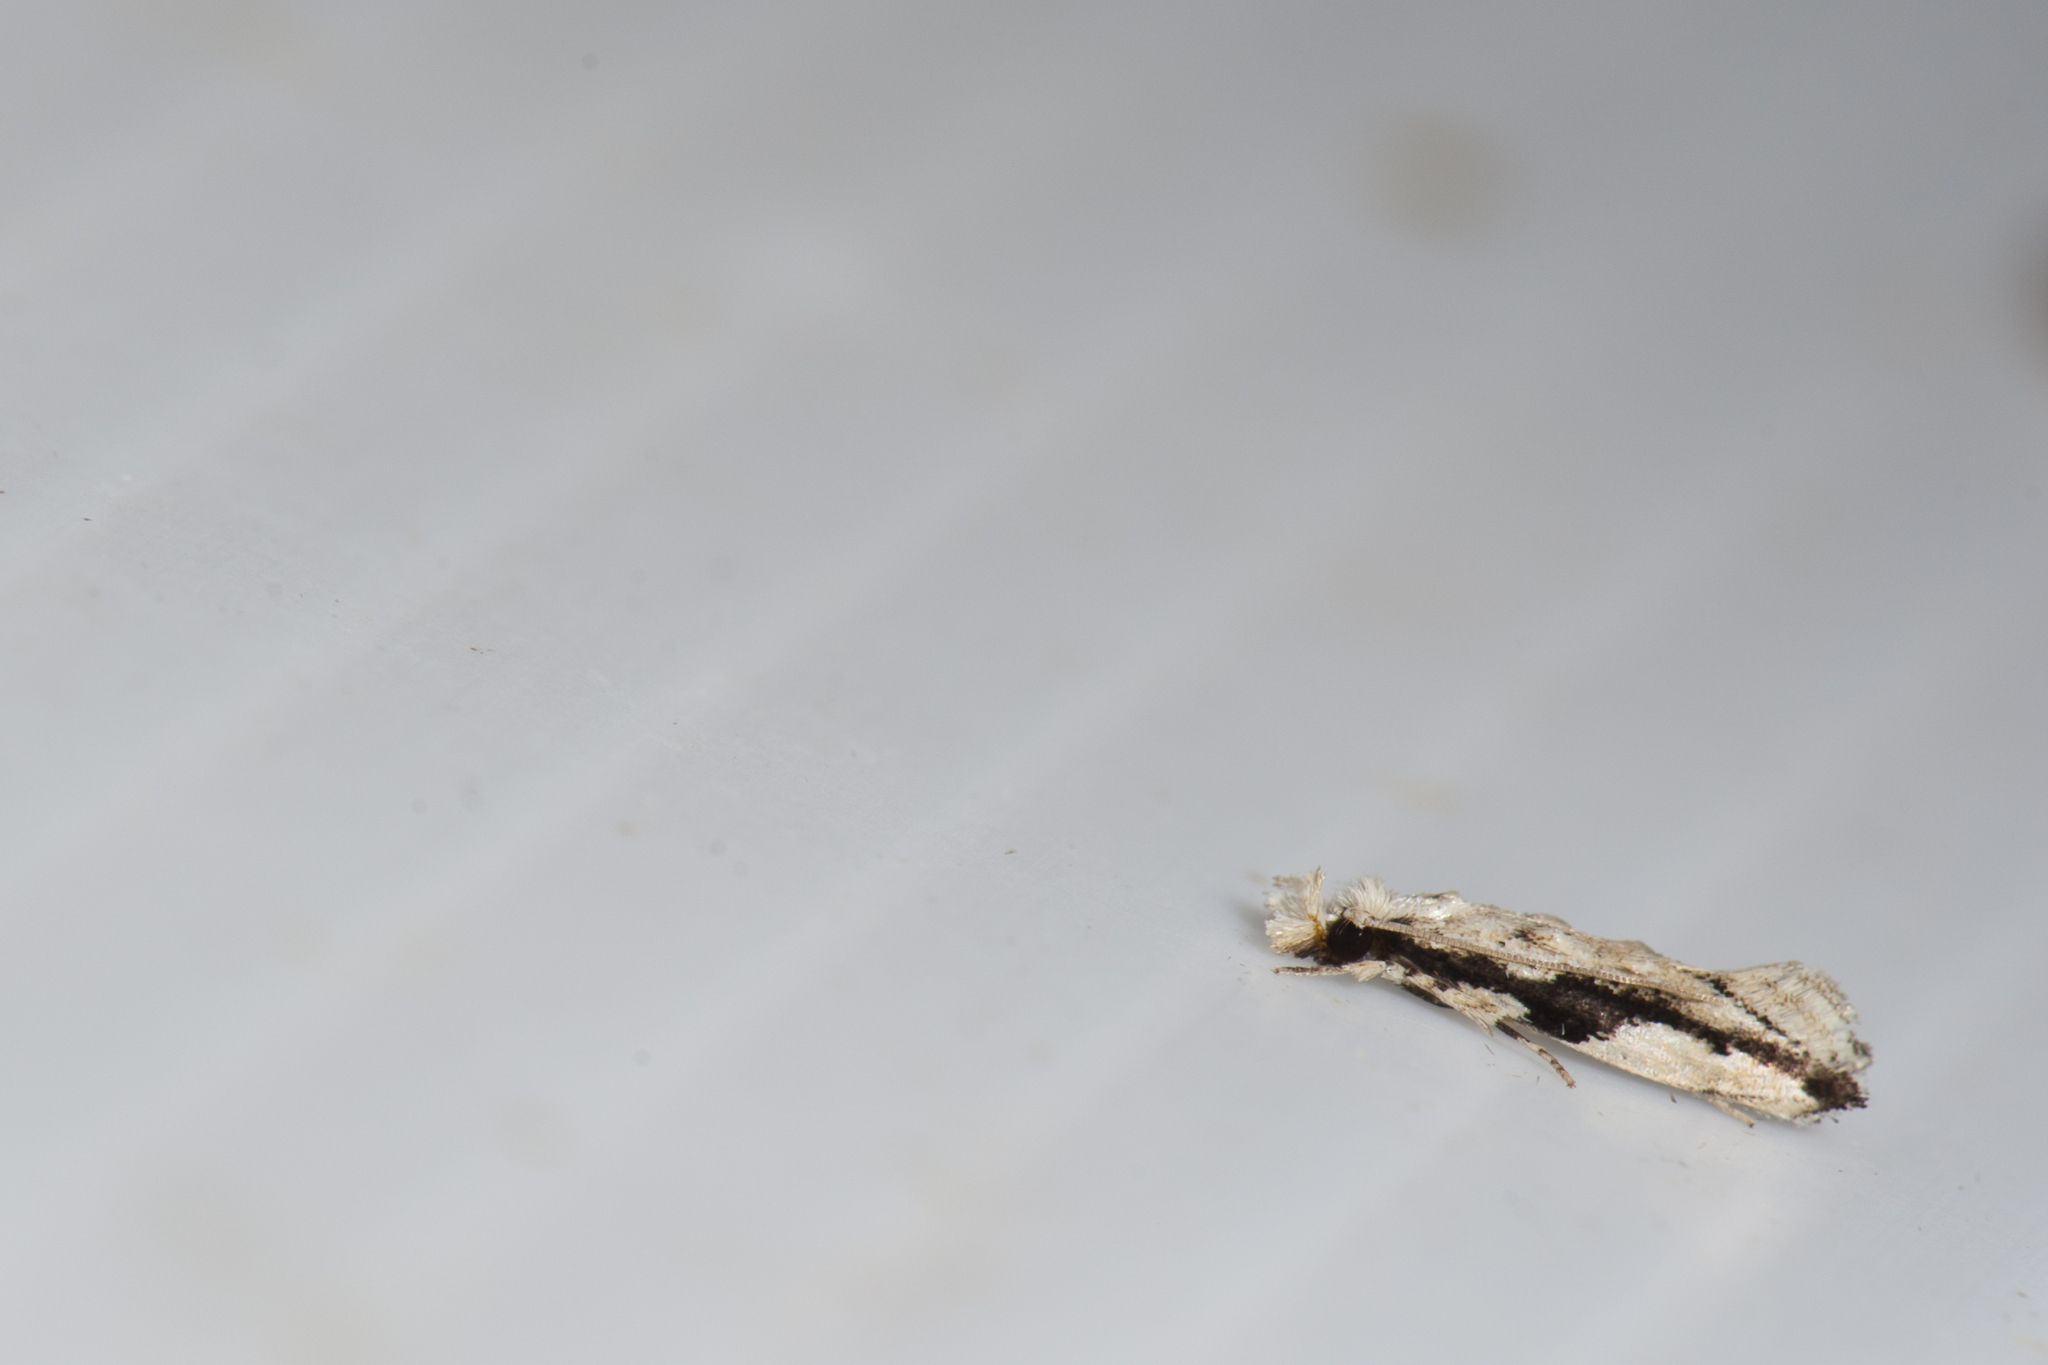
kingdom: Animalia
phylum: Arthropoda
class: Insecta
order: Lepidoptera
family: Tineidae
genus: Erechthias
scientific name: Erechthias atririvis
